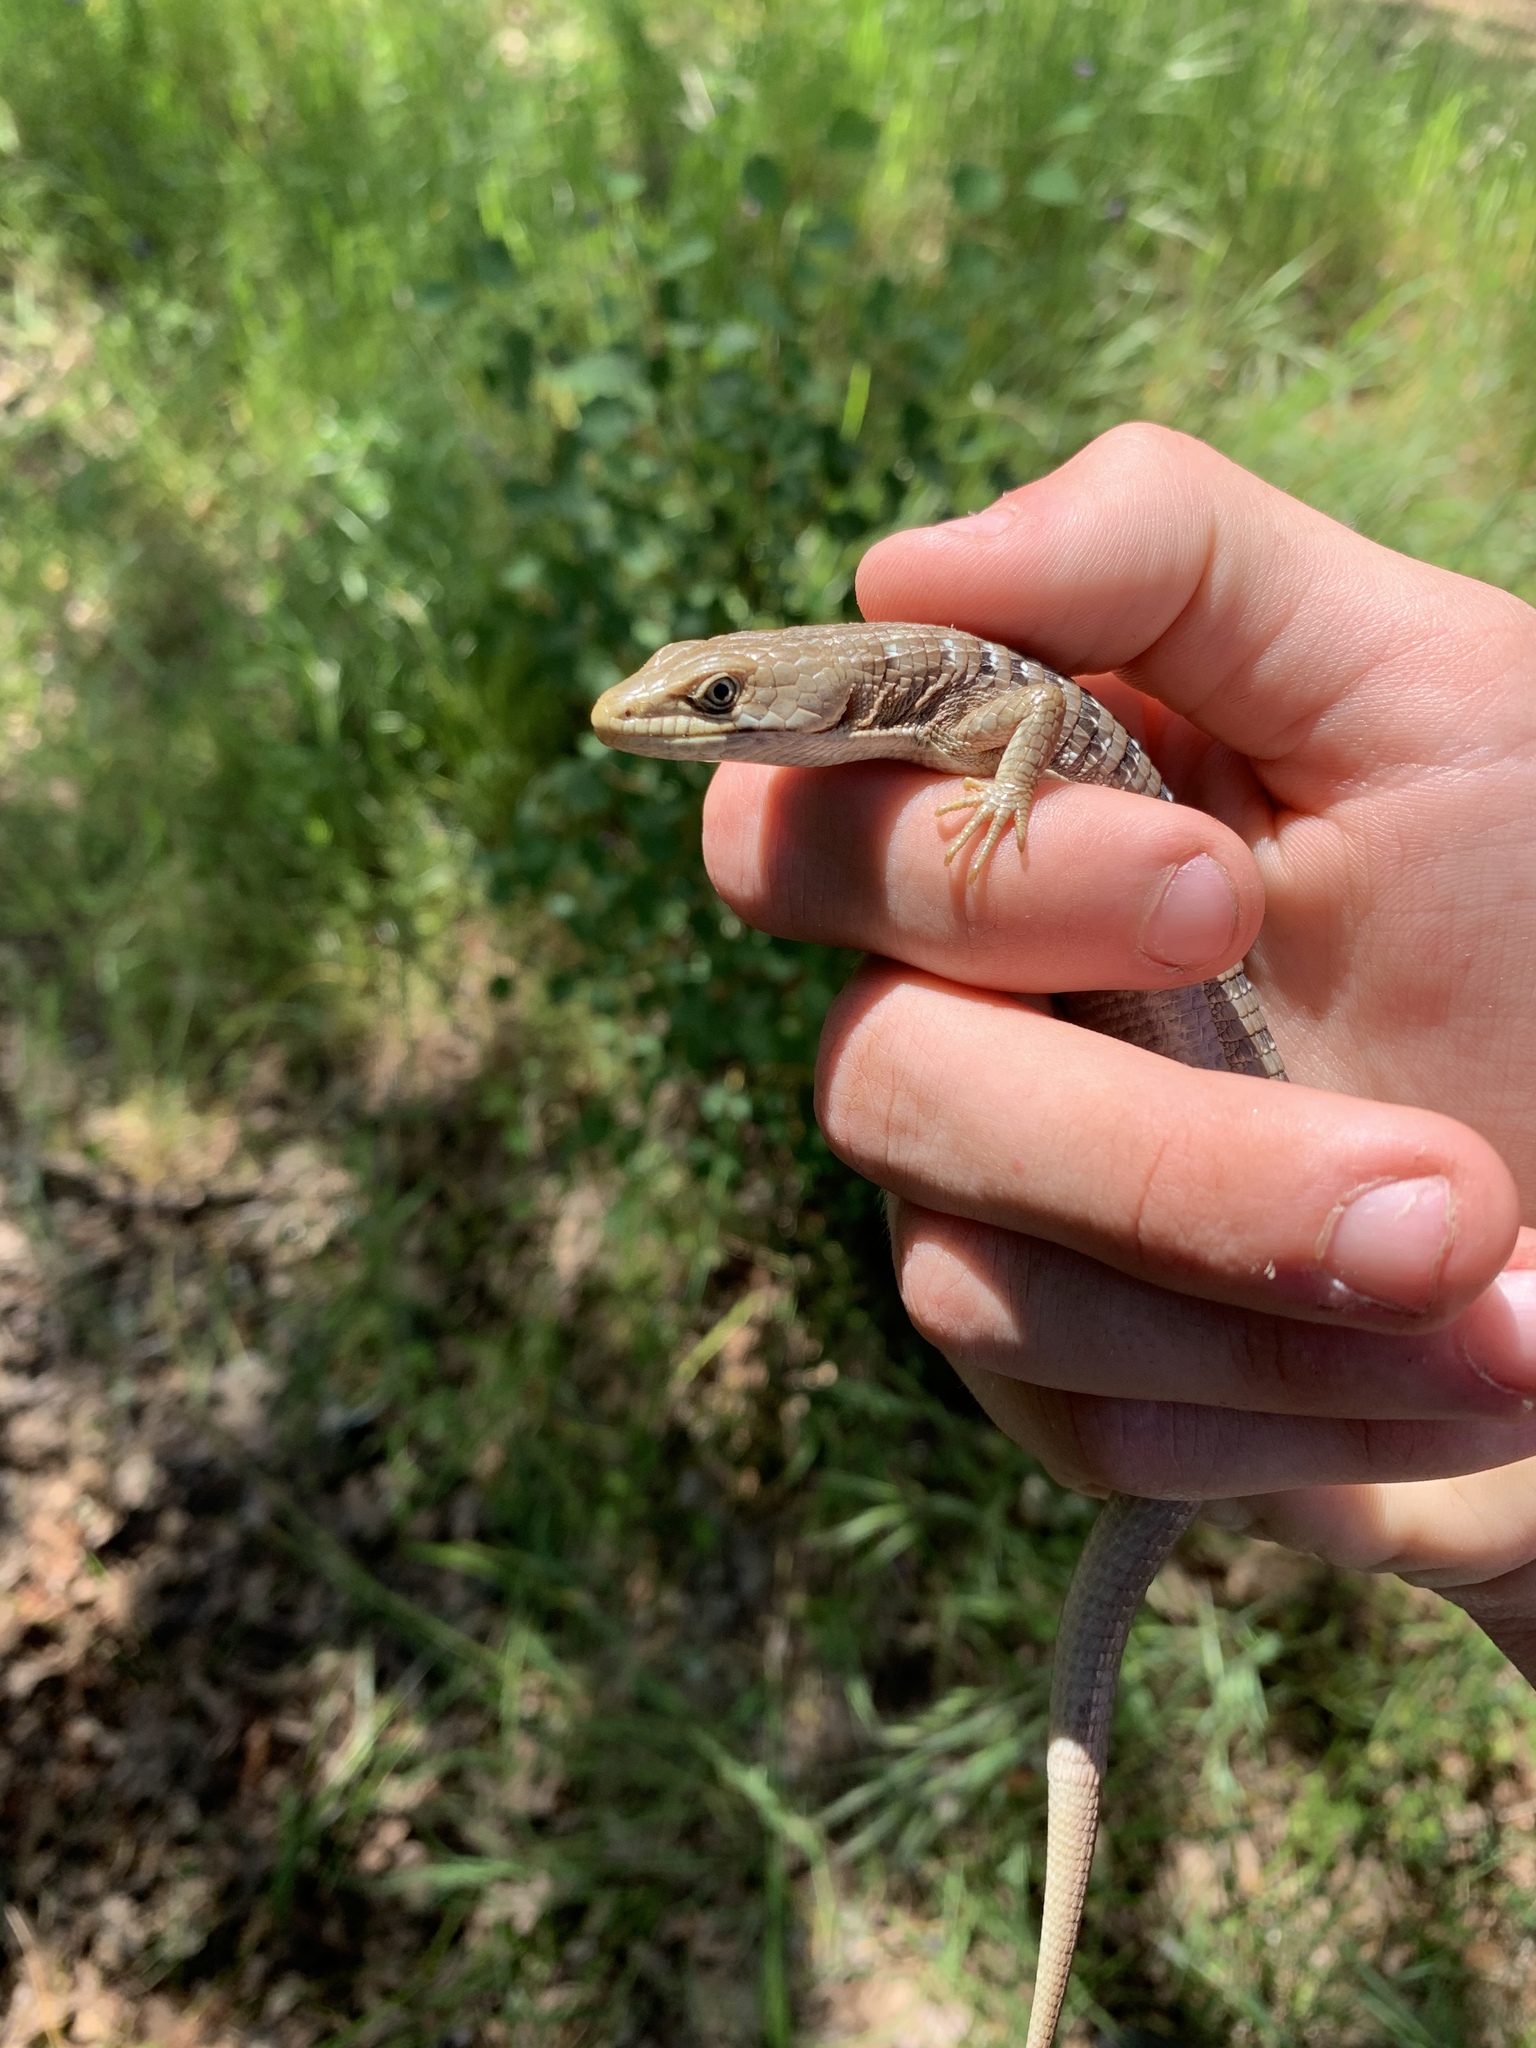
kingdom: Animalia
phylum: Chordata
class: Squamata
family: Anguidae
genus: Elgaria
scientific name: Elgaria multicarinata
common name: Southern alligator lizard
